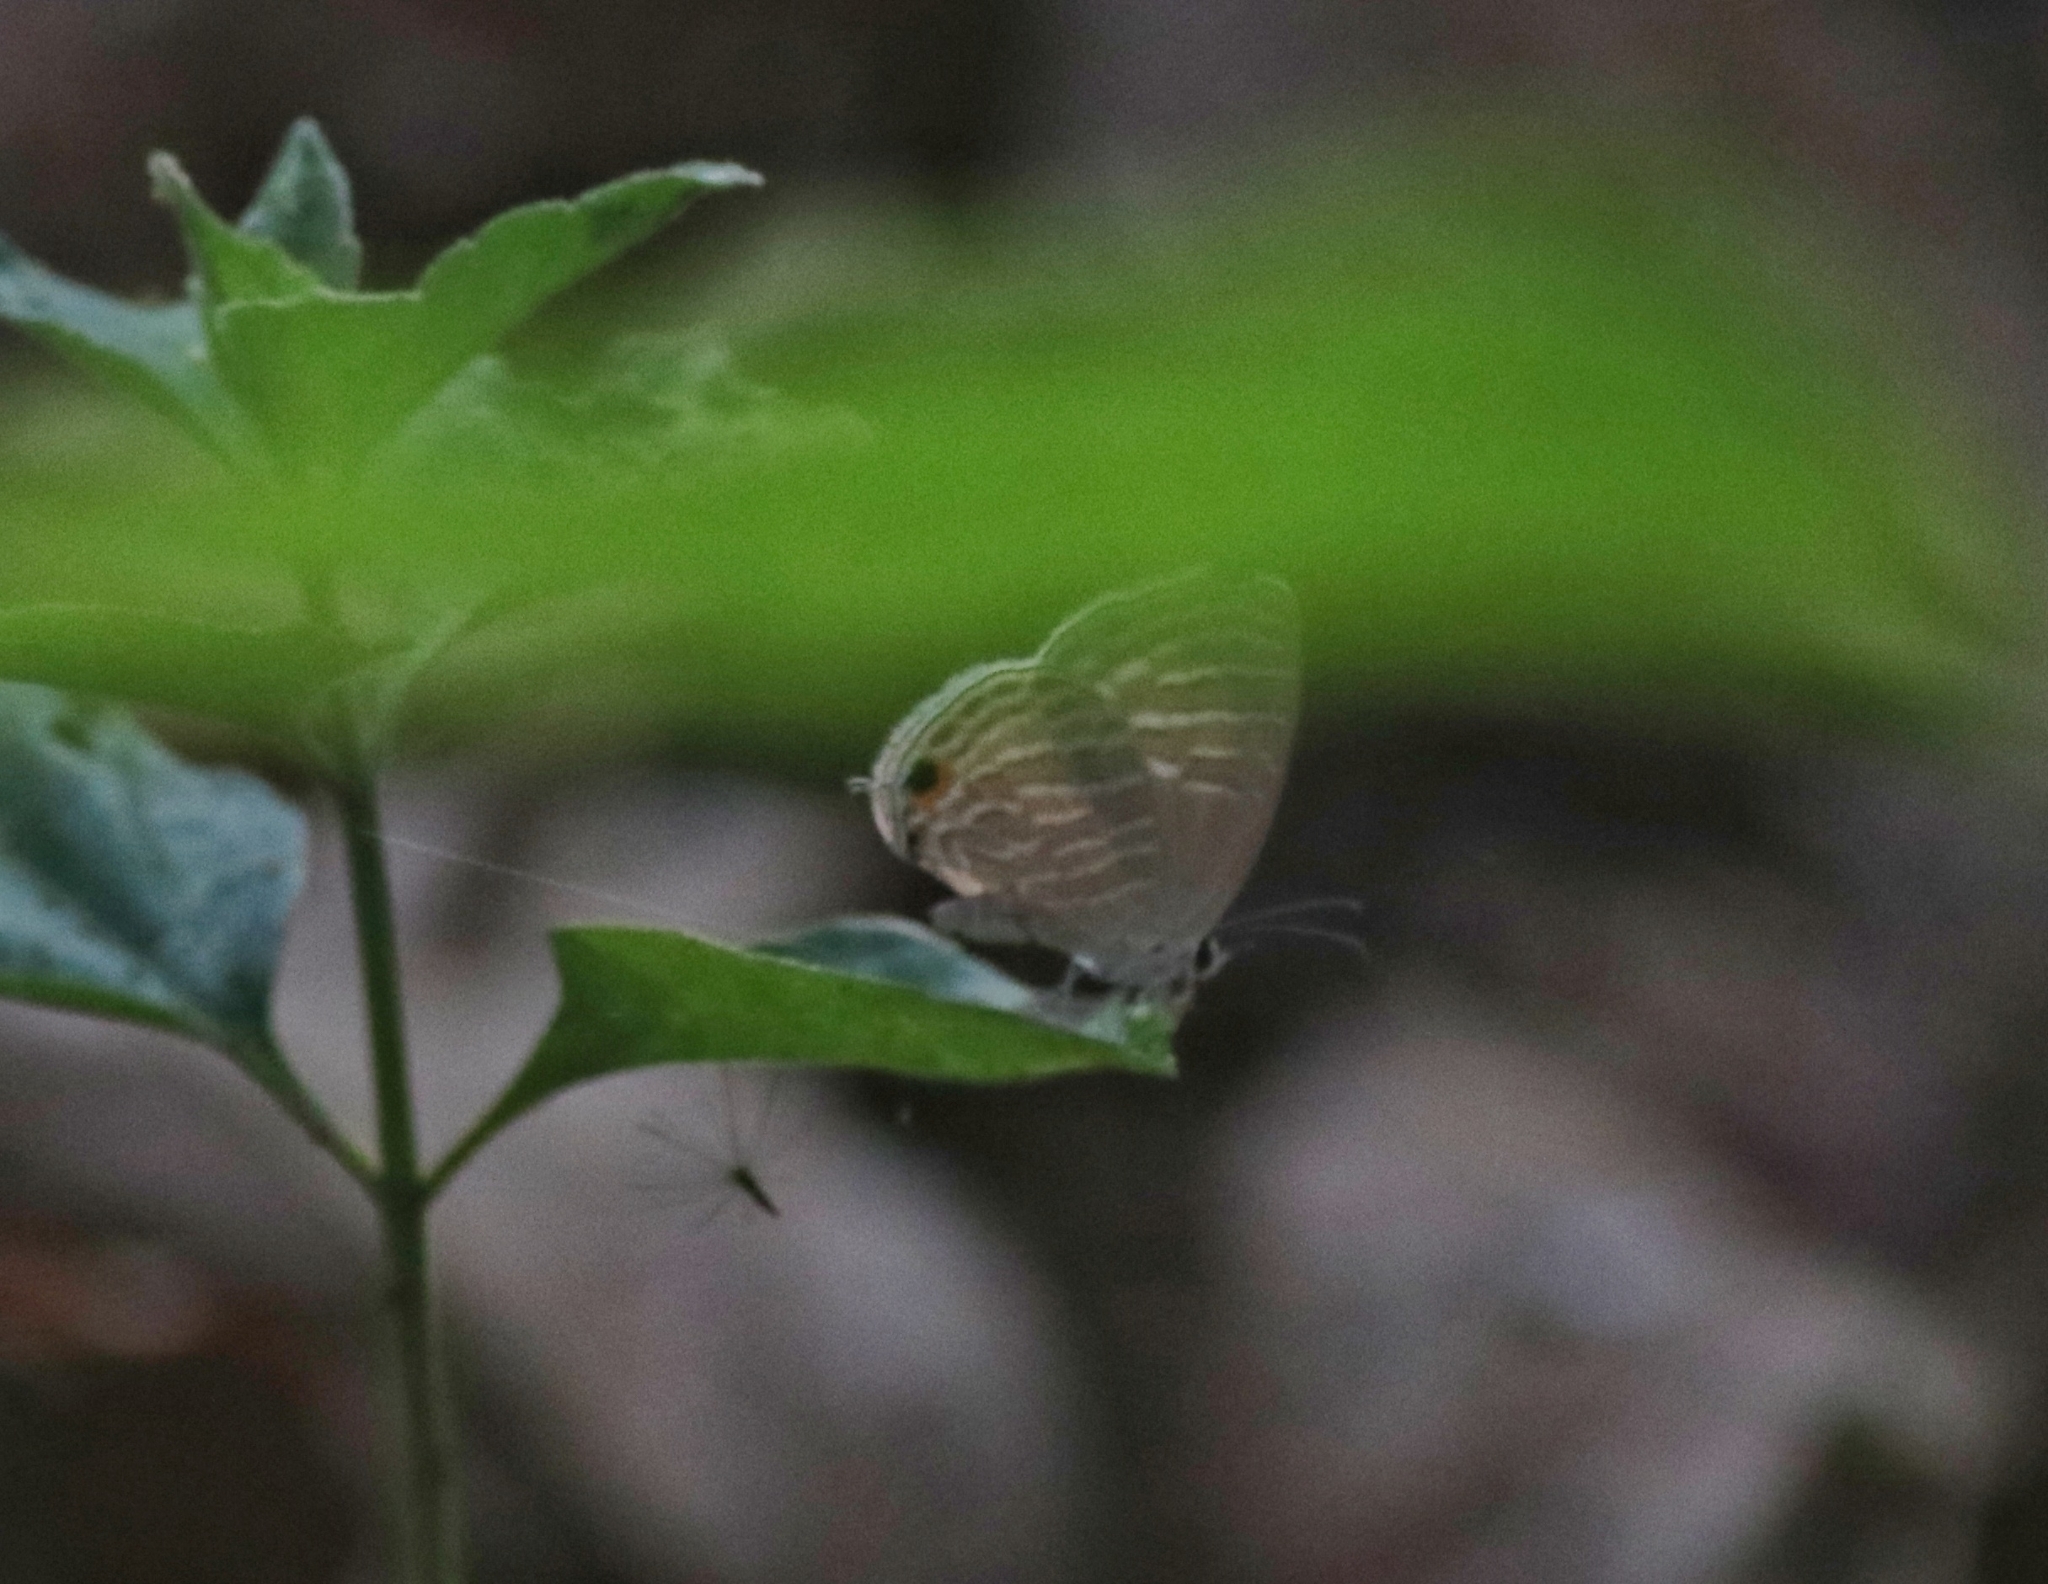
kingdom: Animalia
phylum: Arthropoda
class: Insecta
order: Lepidoptera
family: Lycaenidae
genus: Jamides
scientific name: Jamides celeno
